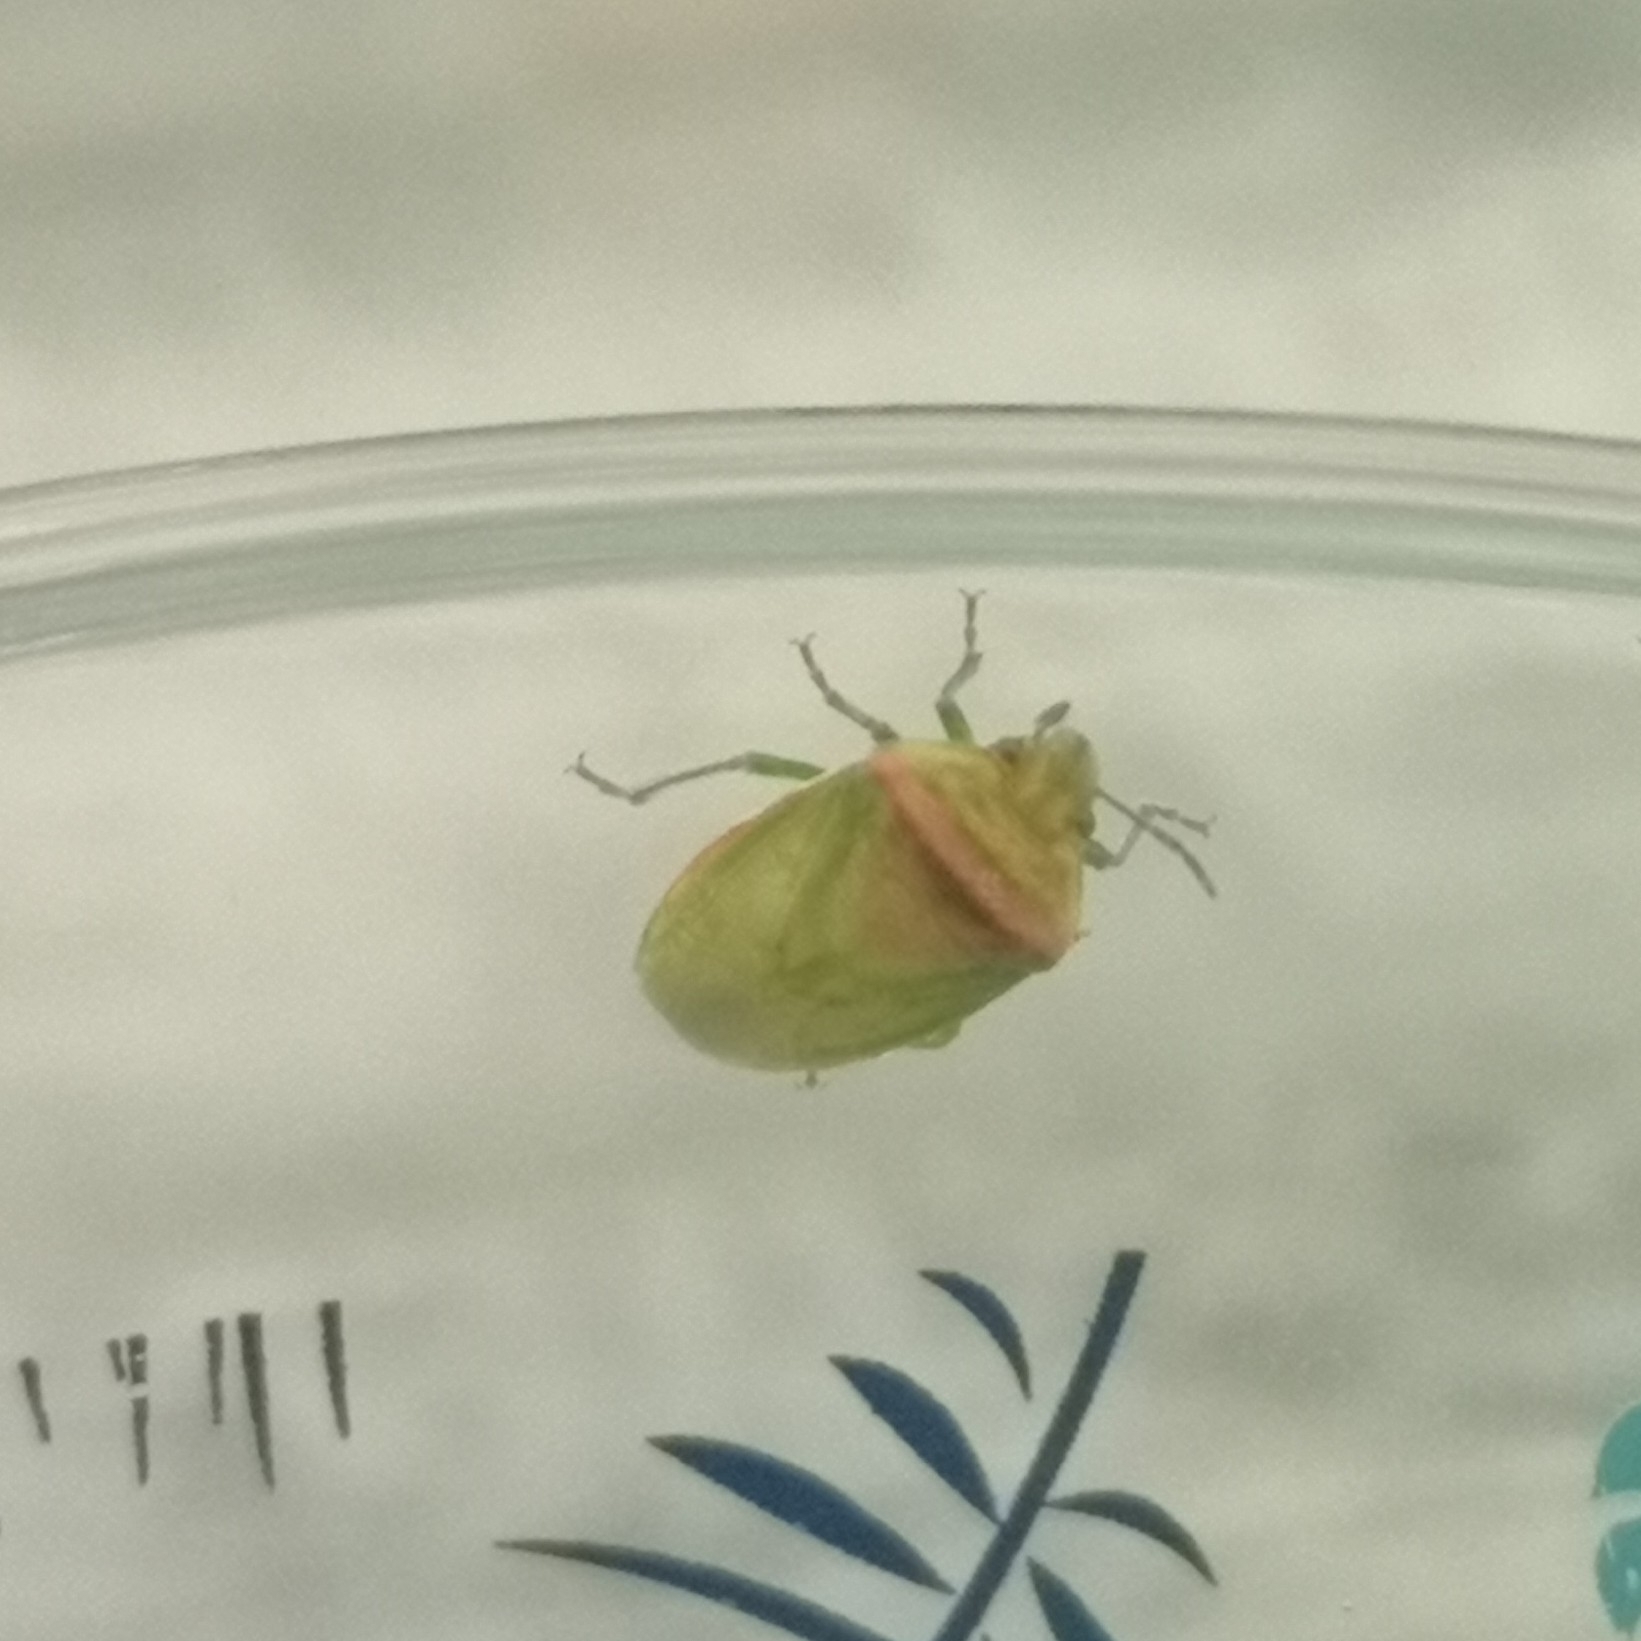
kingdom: Animalia
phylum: Arthropoda
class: Insecta
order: Hemiptera
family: Pentatomidae
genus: Piezodorus
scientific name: Piezodorus teretipes
